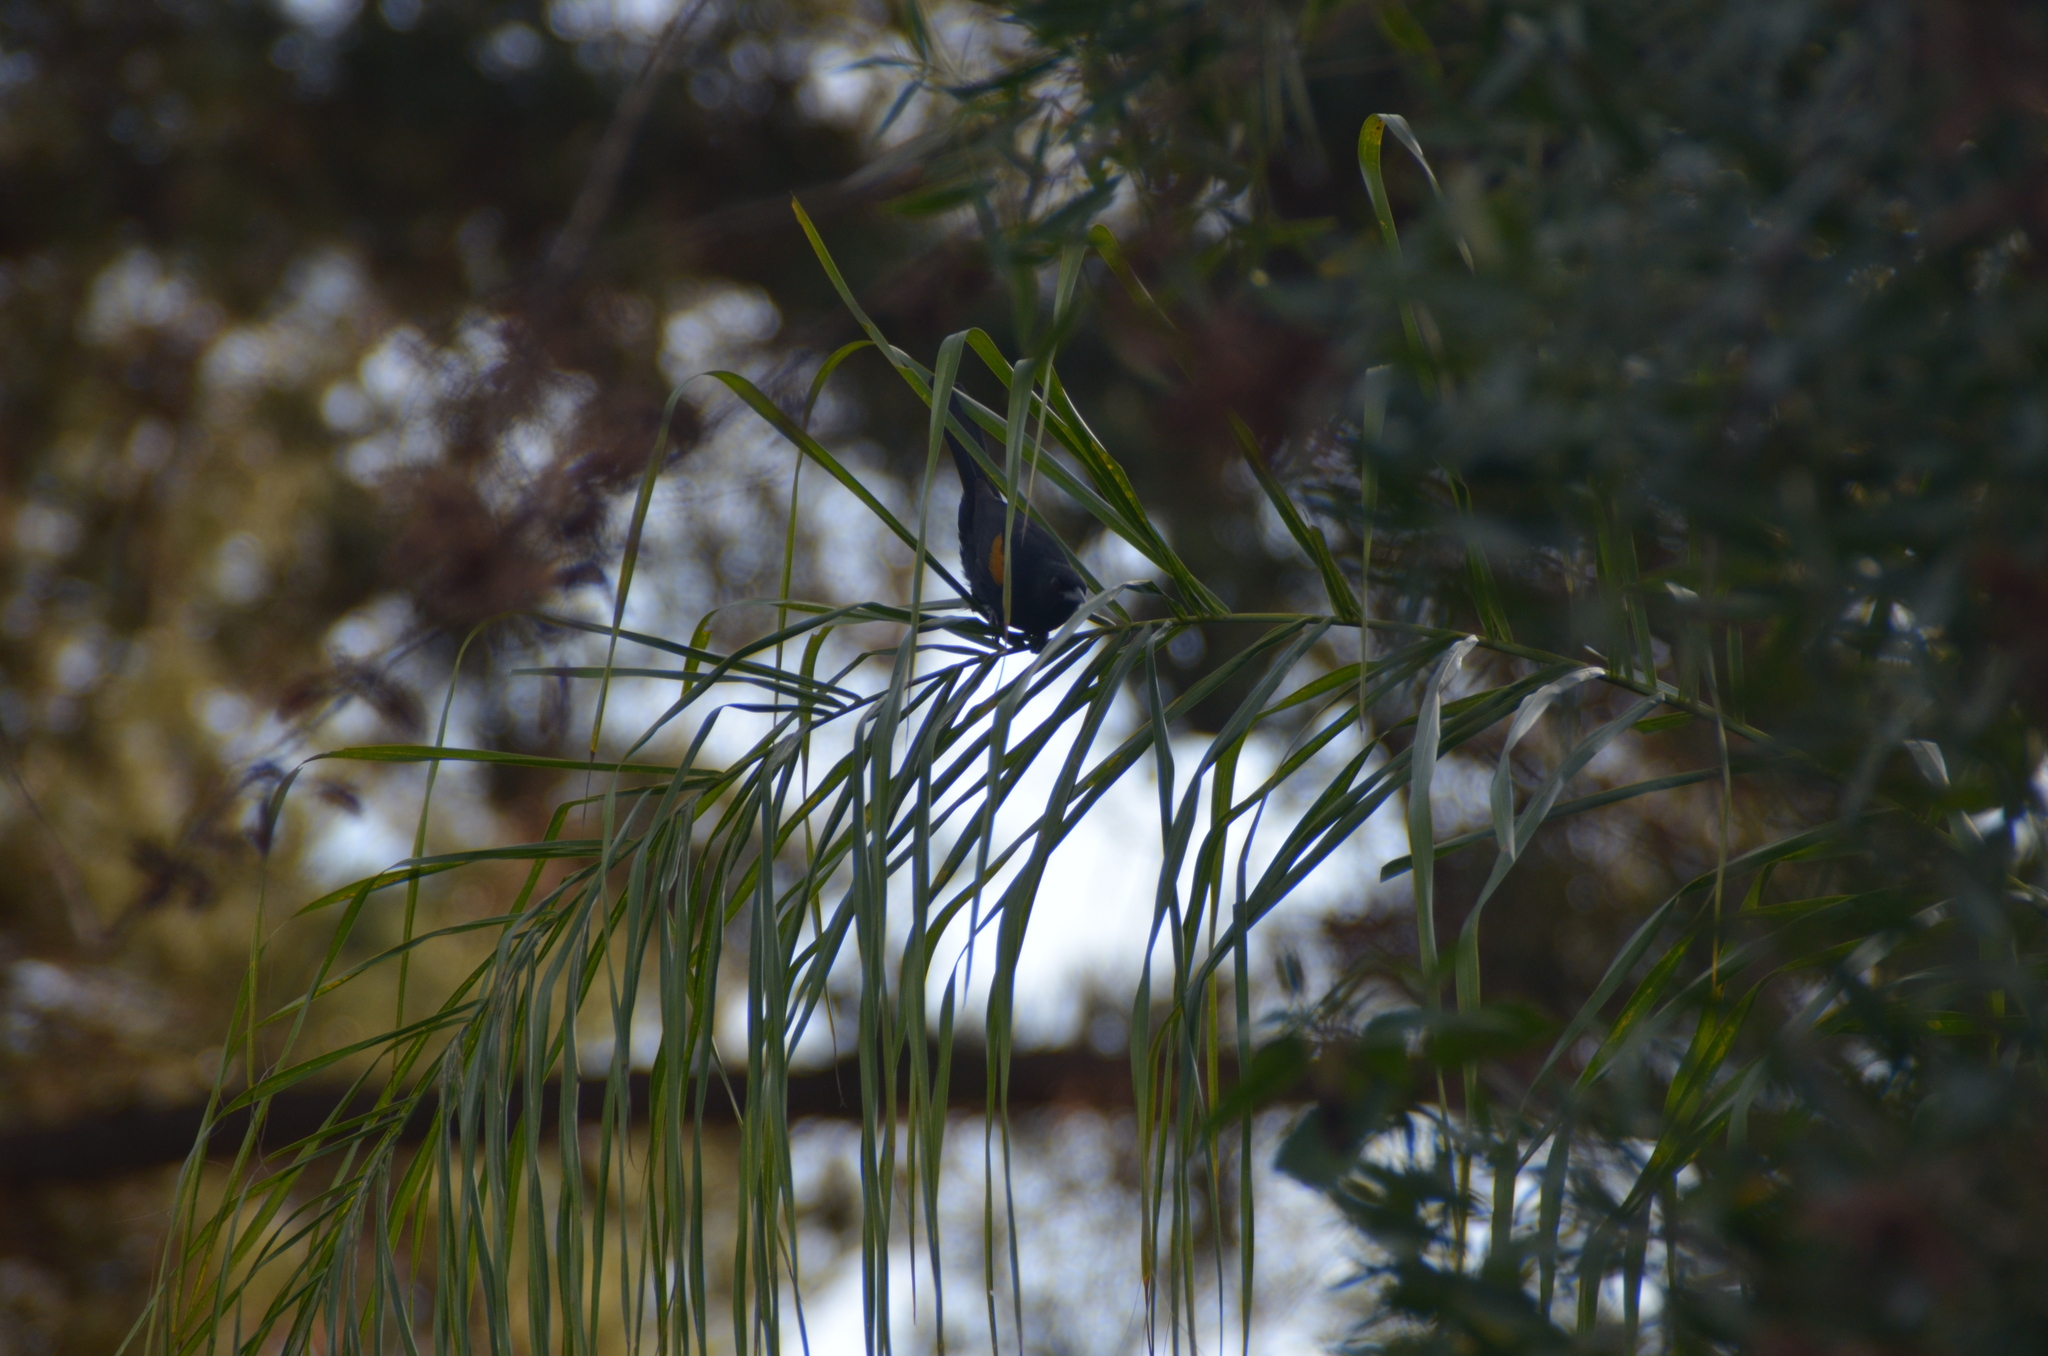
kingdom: Animalia
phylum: Chordata
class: Aves
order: Passeriformes
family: Icteridae
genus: Icterus
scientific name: Icterus cayanensis
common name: Epaulet oriole
